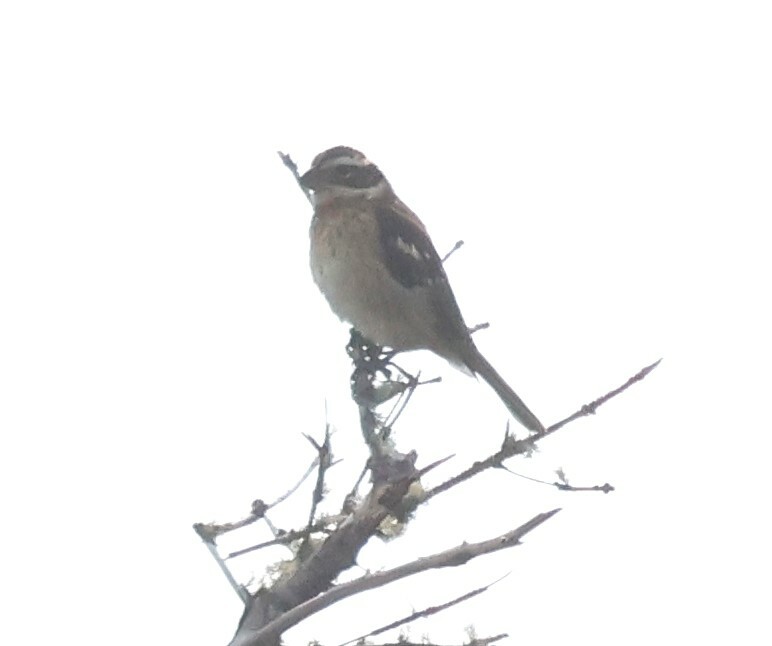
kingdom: Animalia
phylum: Chordata
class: Aves
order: Passeriformes
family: Cardinalidae
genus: Pheucticus
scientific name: Pheucticus ludovicianus
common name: Rose-breasted grosbeak
